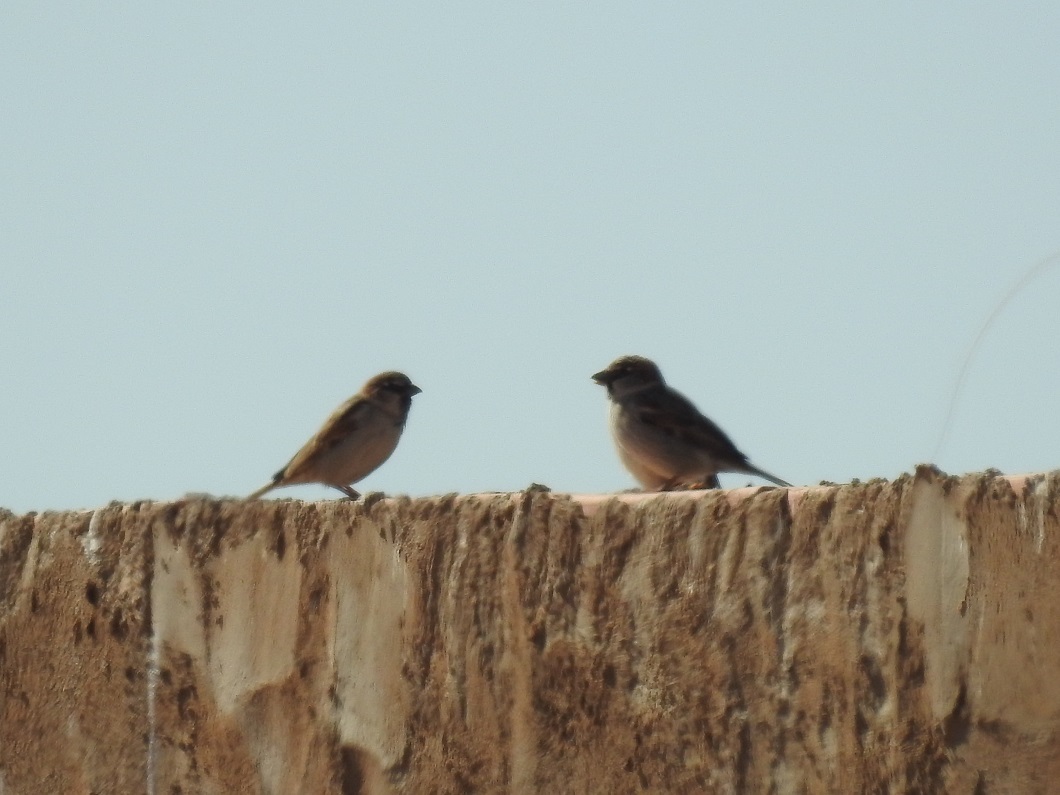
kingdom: Animalia
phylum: Chordata
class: Aves
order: Passeriformes
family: Passeridae
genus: Passer
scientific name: Passer domesticus
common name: House sparrow
